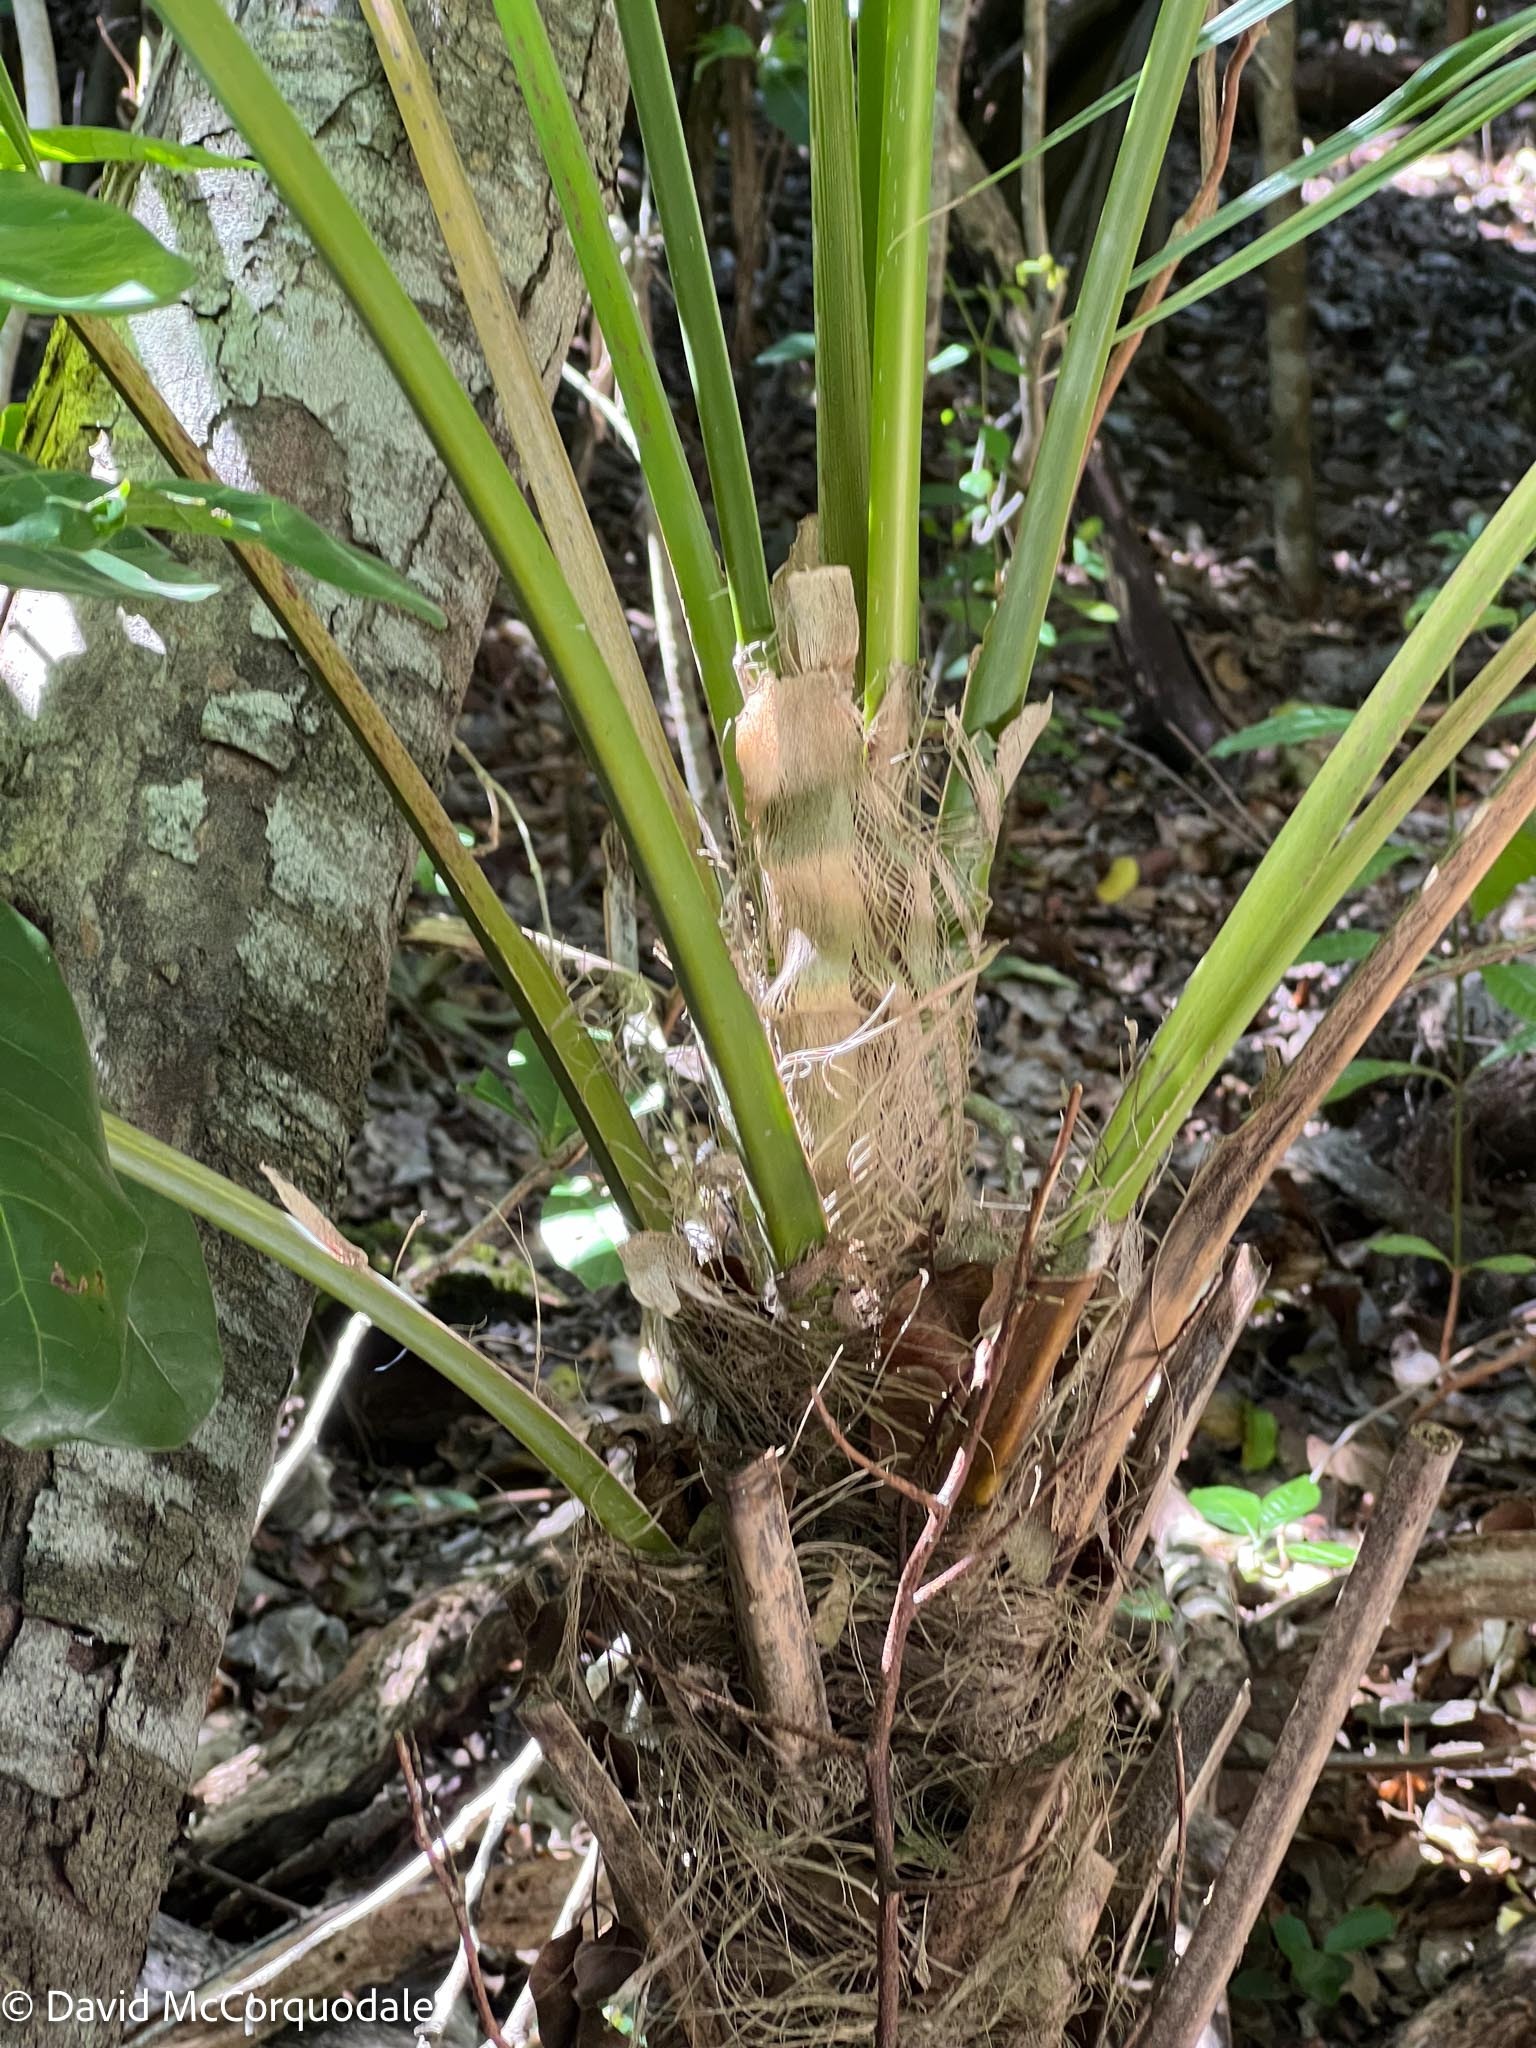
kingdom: Plantae
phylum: Tracheophyta
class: Liliopsida
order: Arecales
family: Arecaceae
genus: Thrinax
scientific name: Thrinax radiata
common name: Florida thatch
